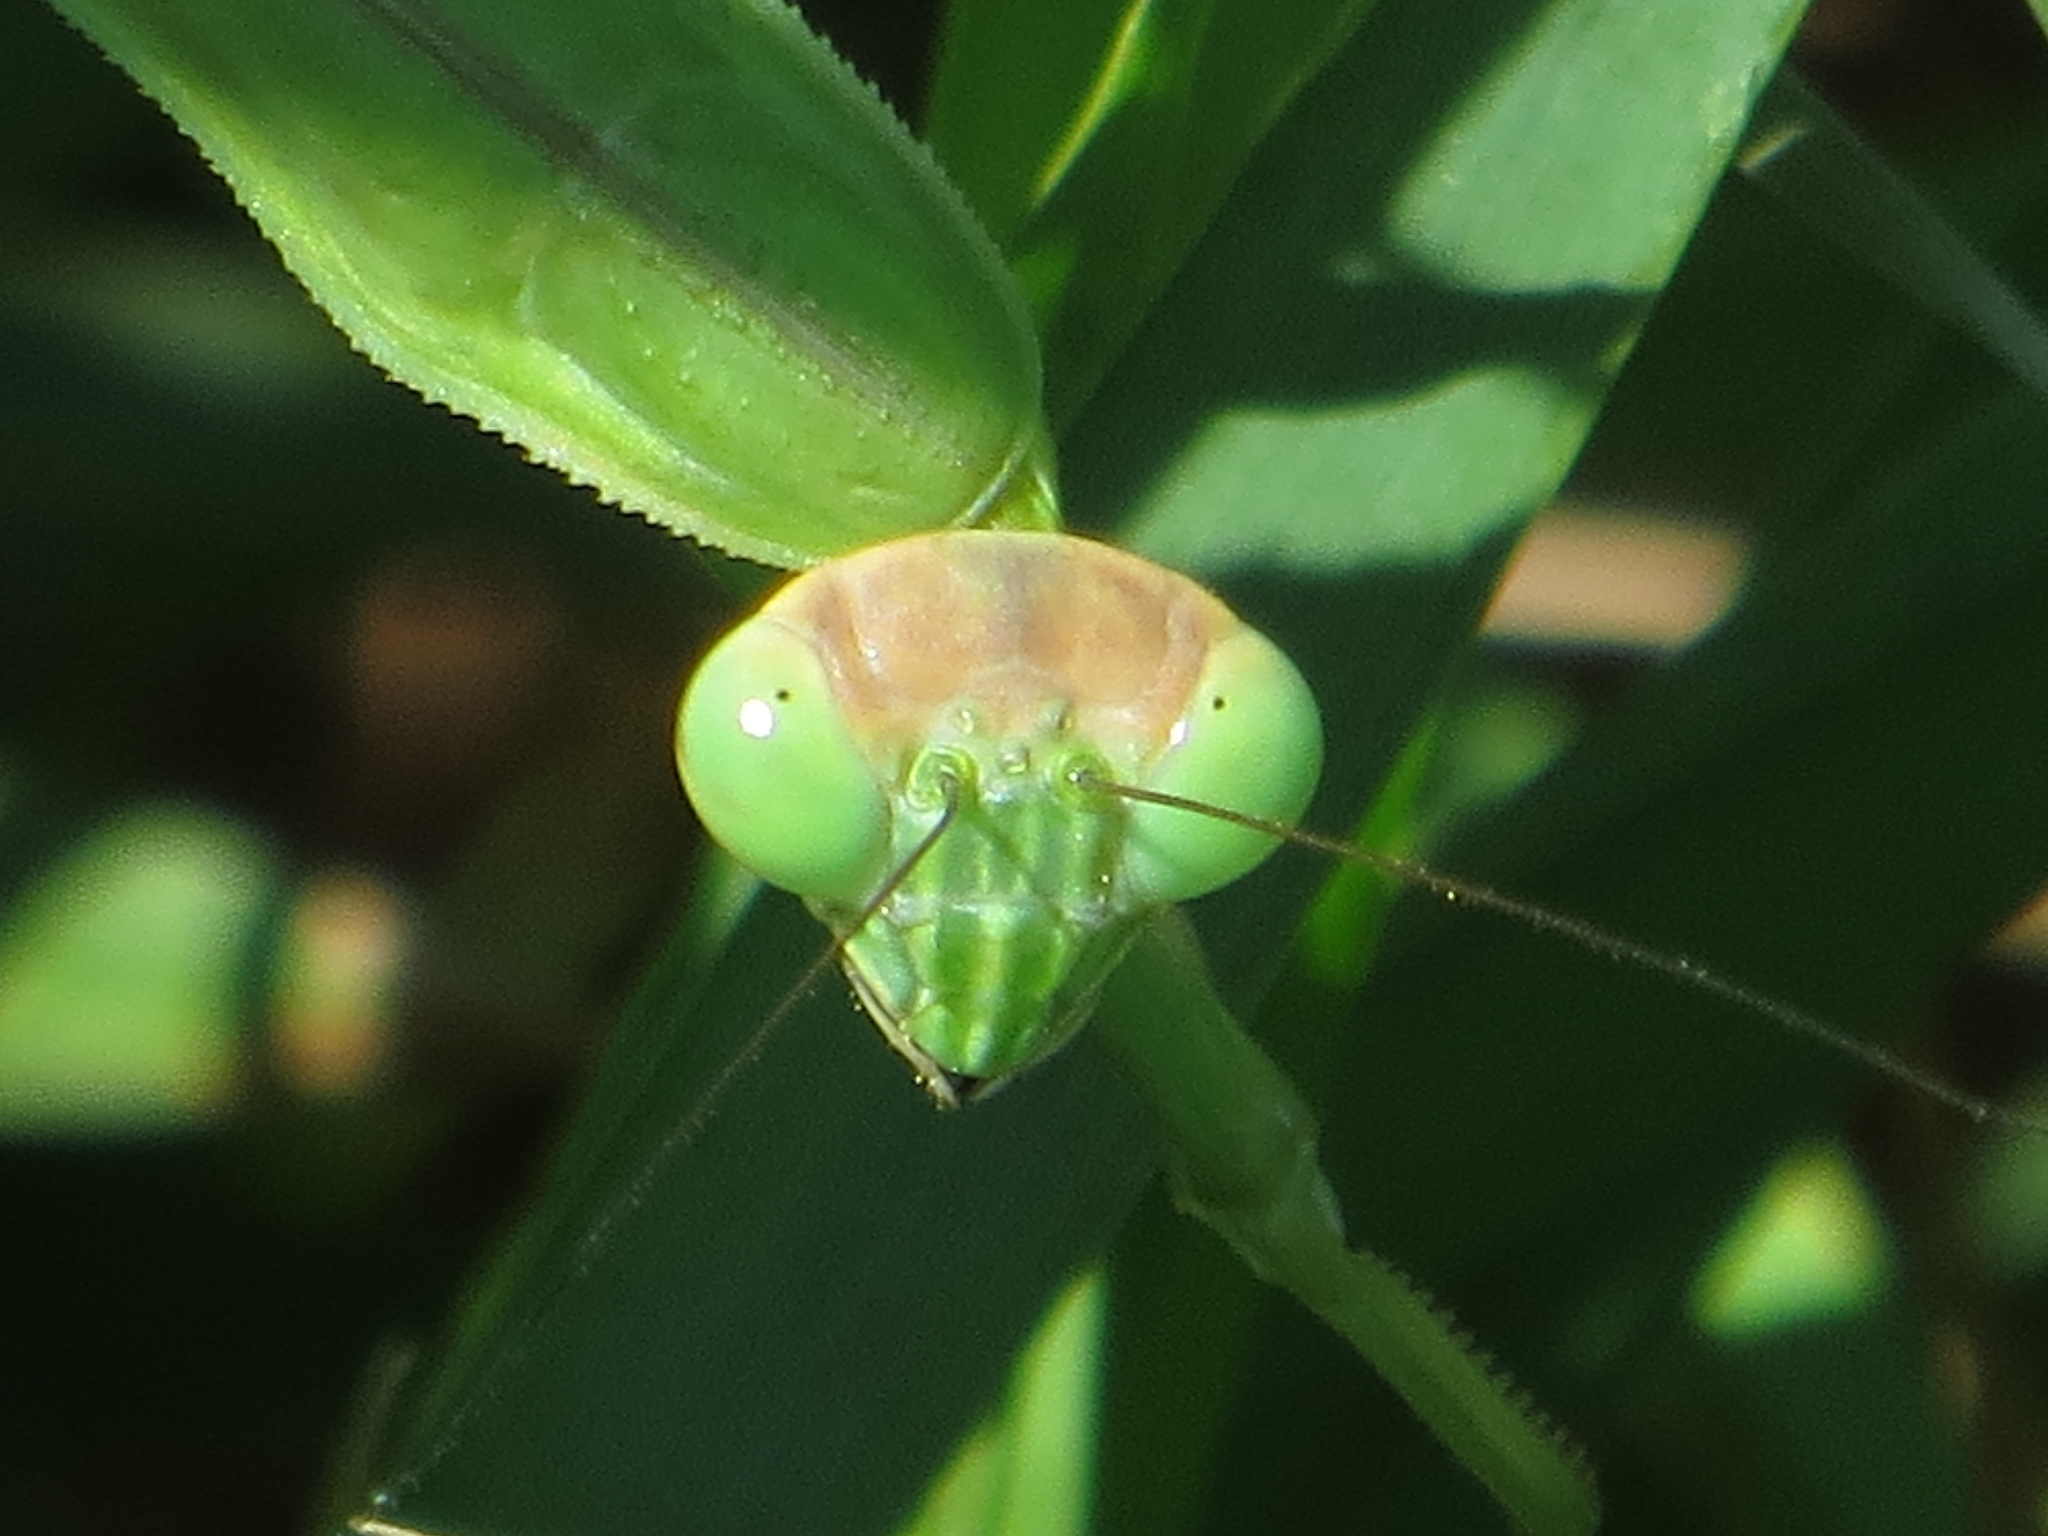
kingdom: Animalia
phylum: Arthropoda
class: Insecta
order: Mantodea
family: Mantidae
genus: Tenodera
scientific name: Tenodera sinensis
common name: Chinese mantis
